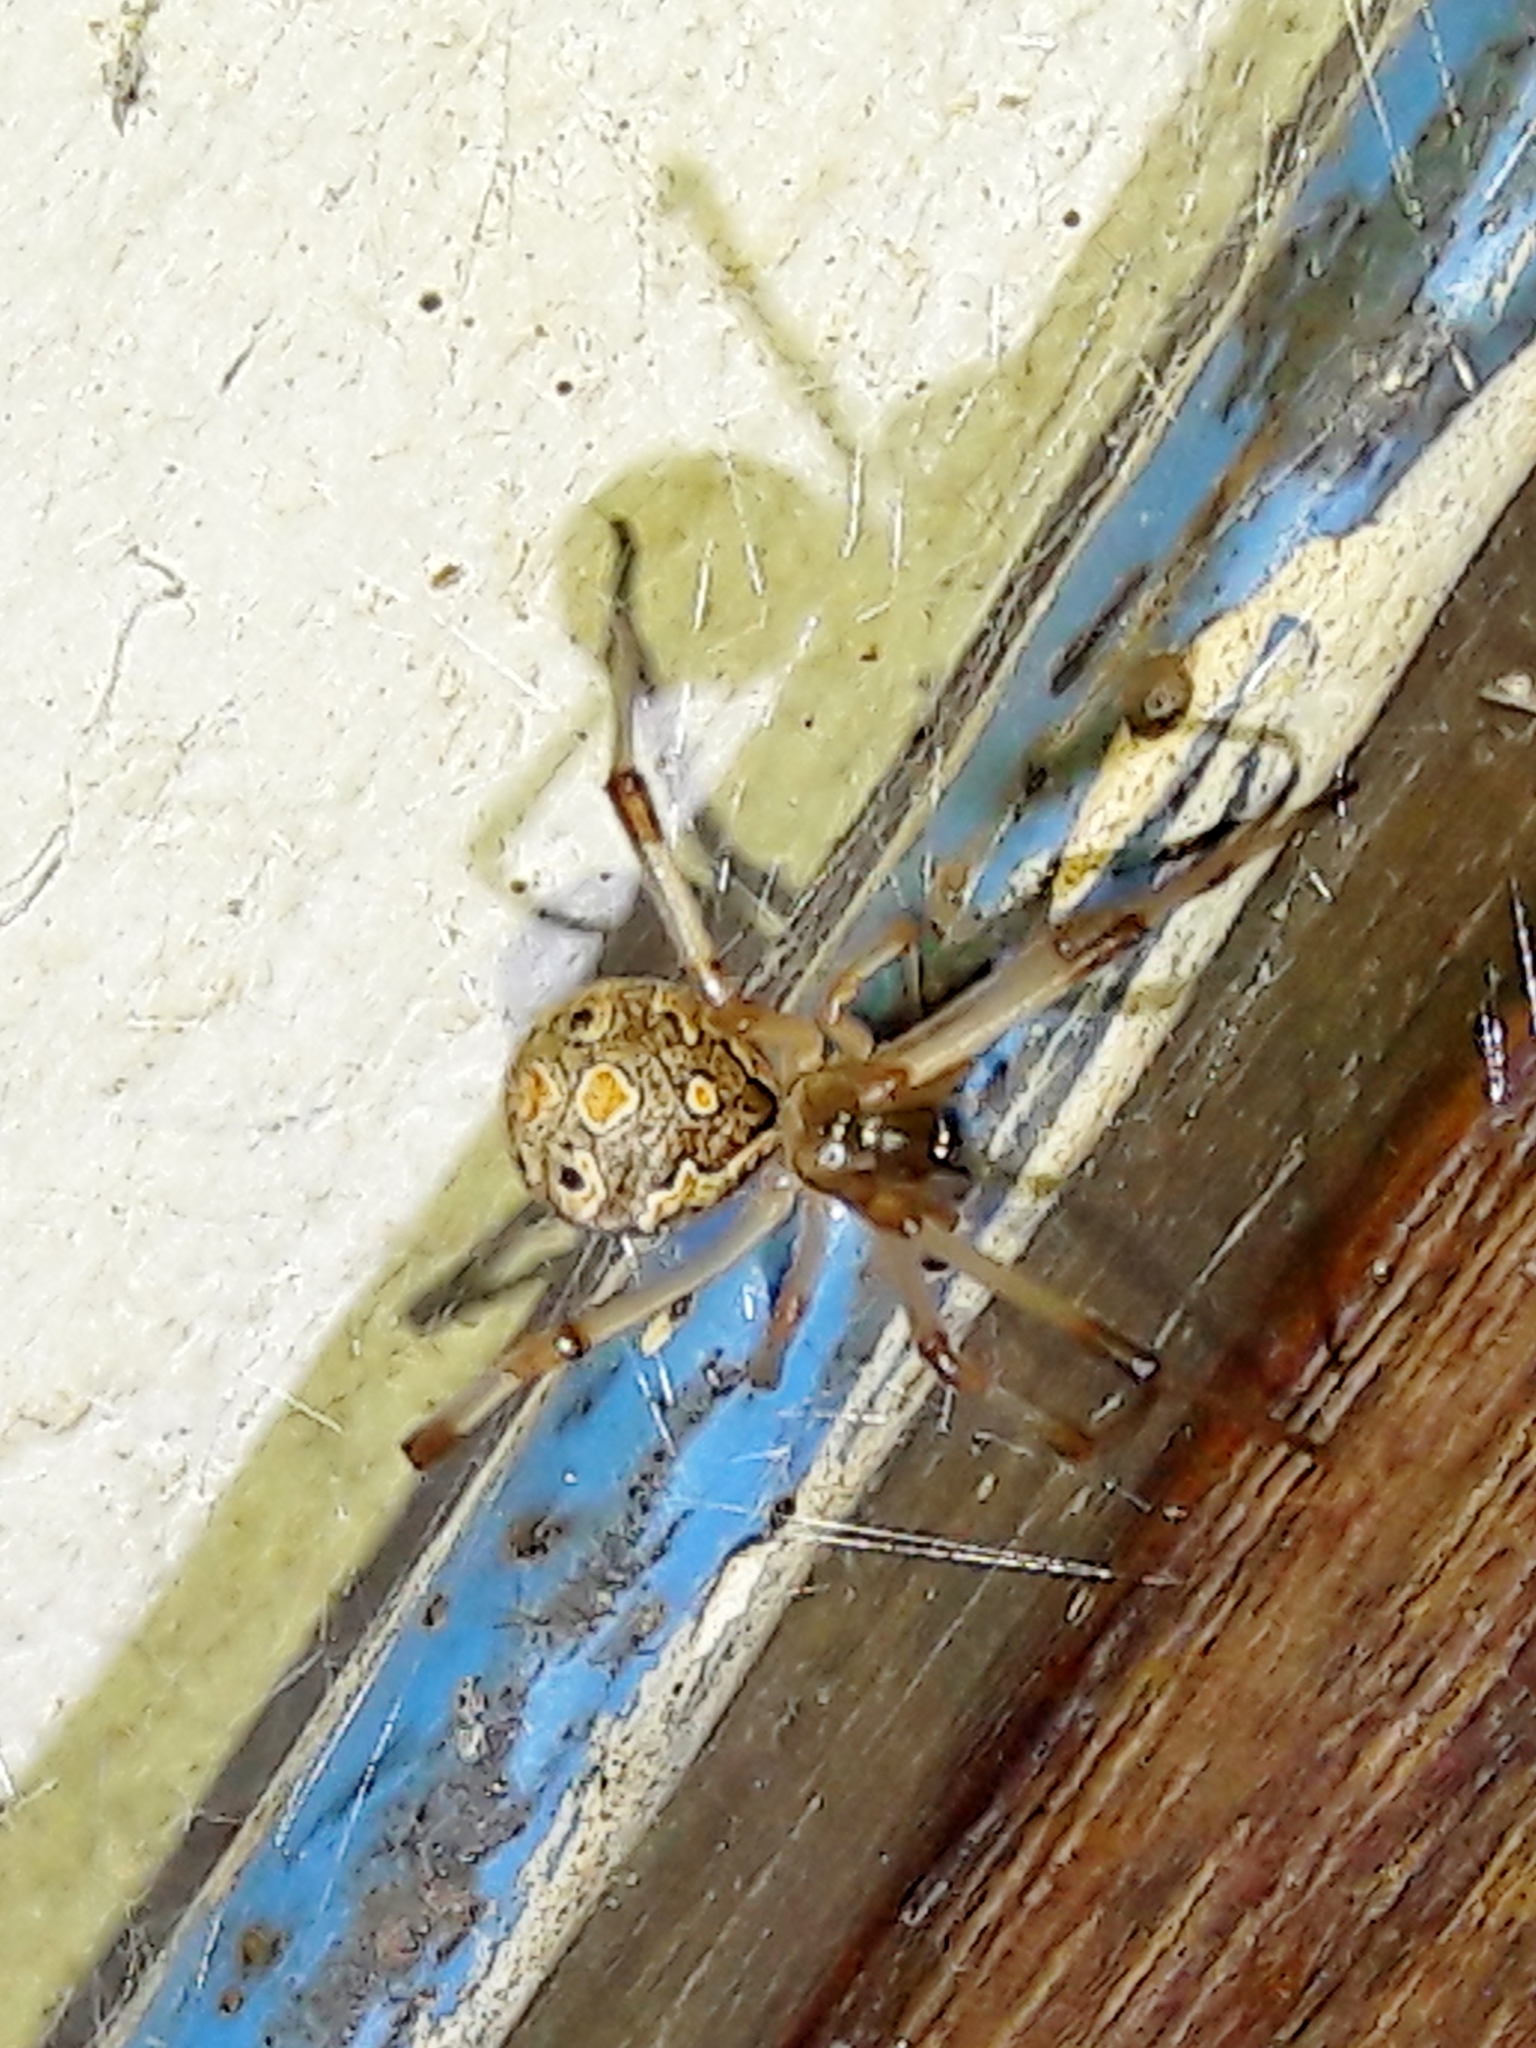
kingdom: Animalia
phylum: Arthropoda
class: Arachnida
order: Araneae
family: Theridiidae
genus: Latrodectus
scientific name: Latrodectus geometricus
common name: Brown widow spider
